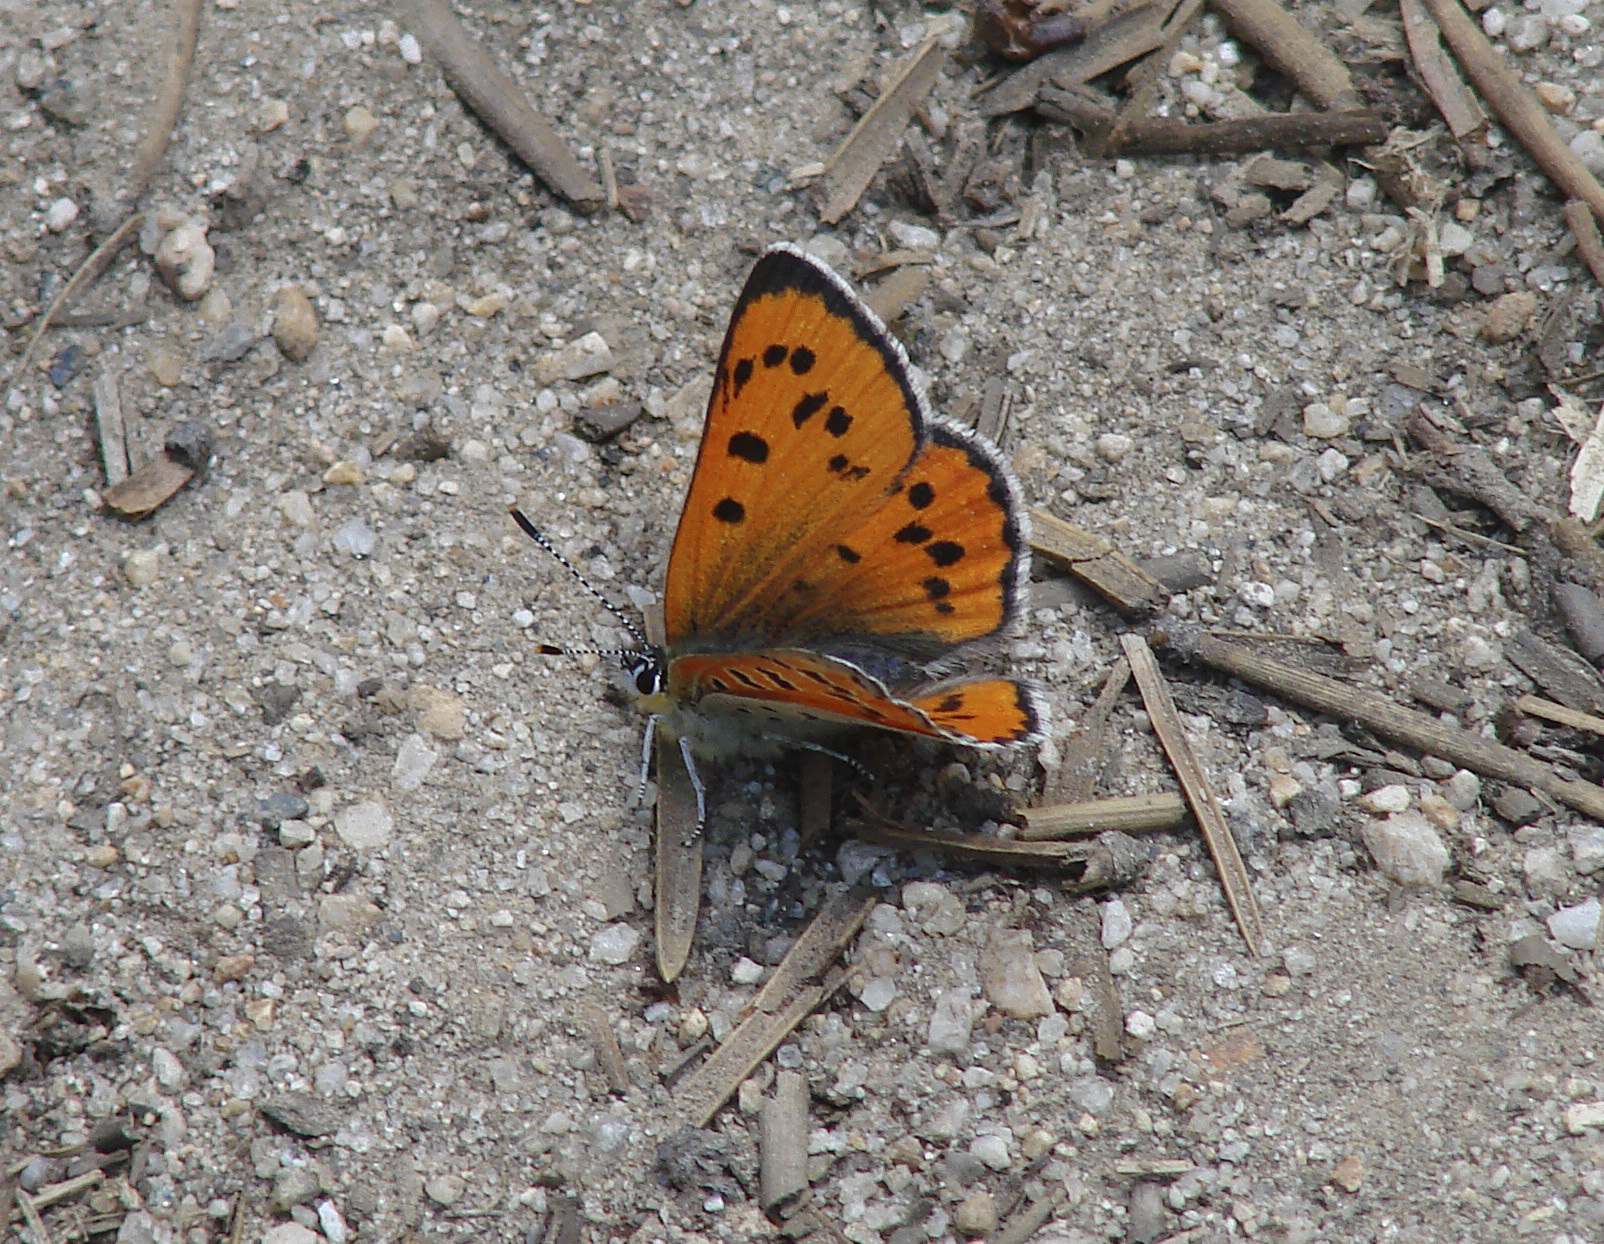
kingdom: Animalia
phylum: Arthropoda
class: Insecta
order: Lepidoptera
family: Lycaenidae
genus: Lycaena
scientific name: Lycaena cupreus
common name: Lustrous copper
